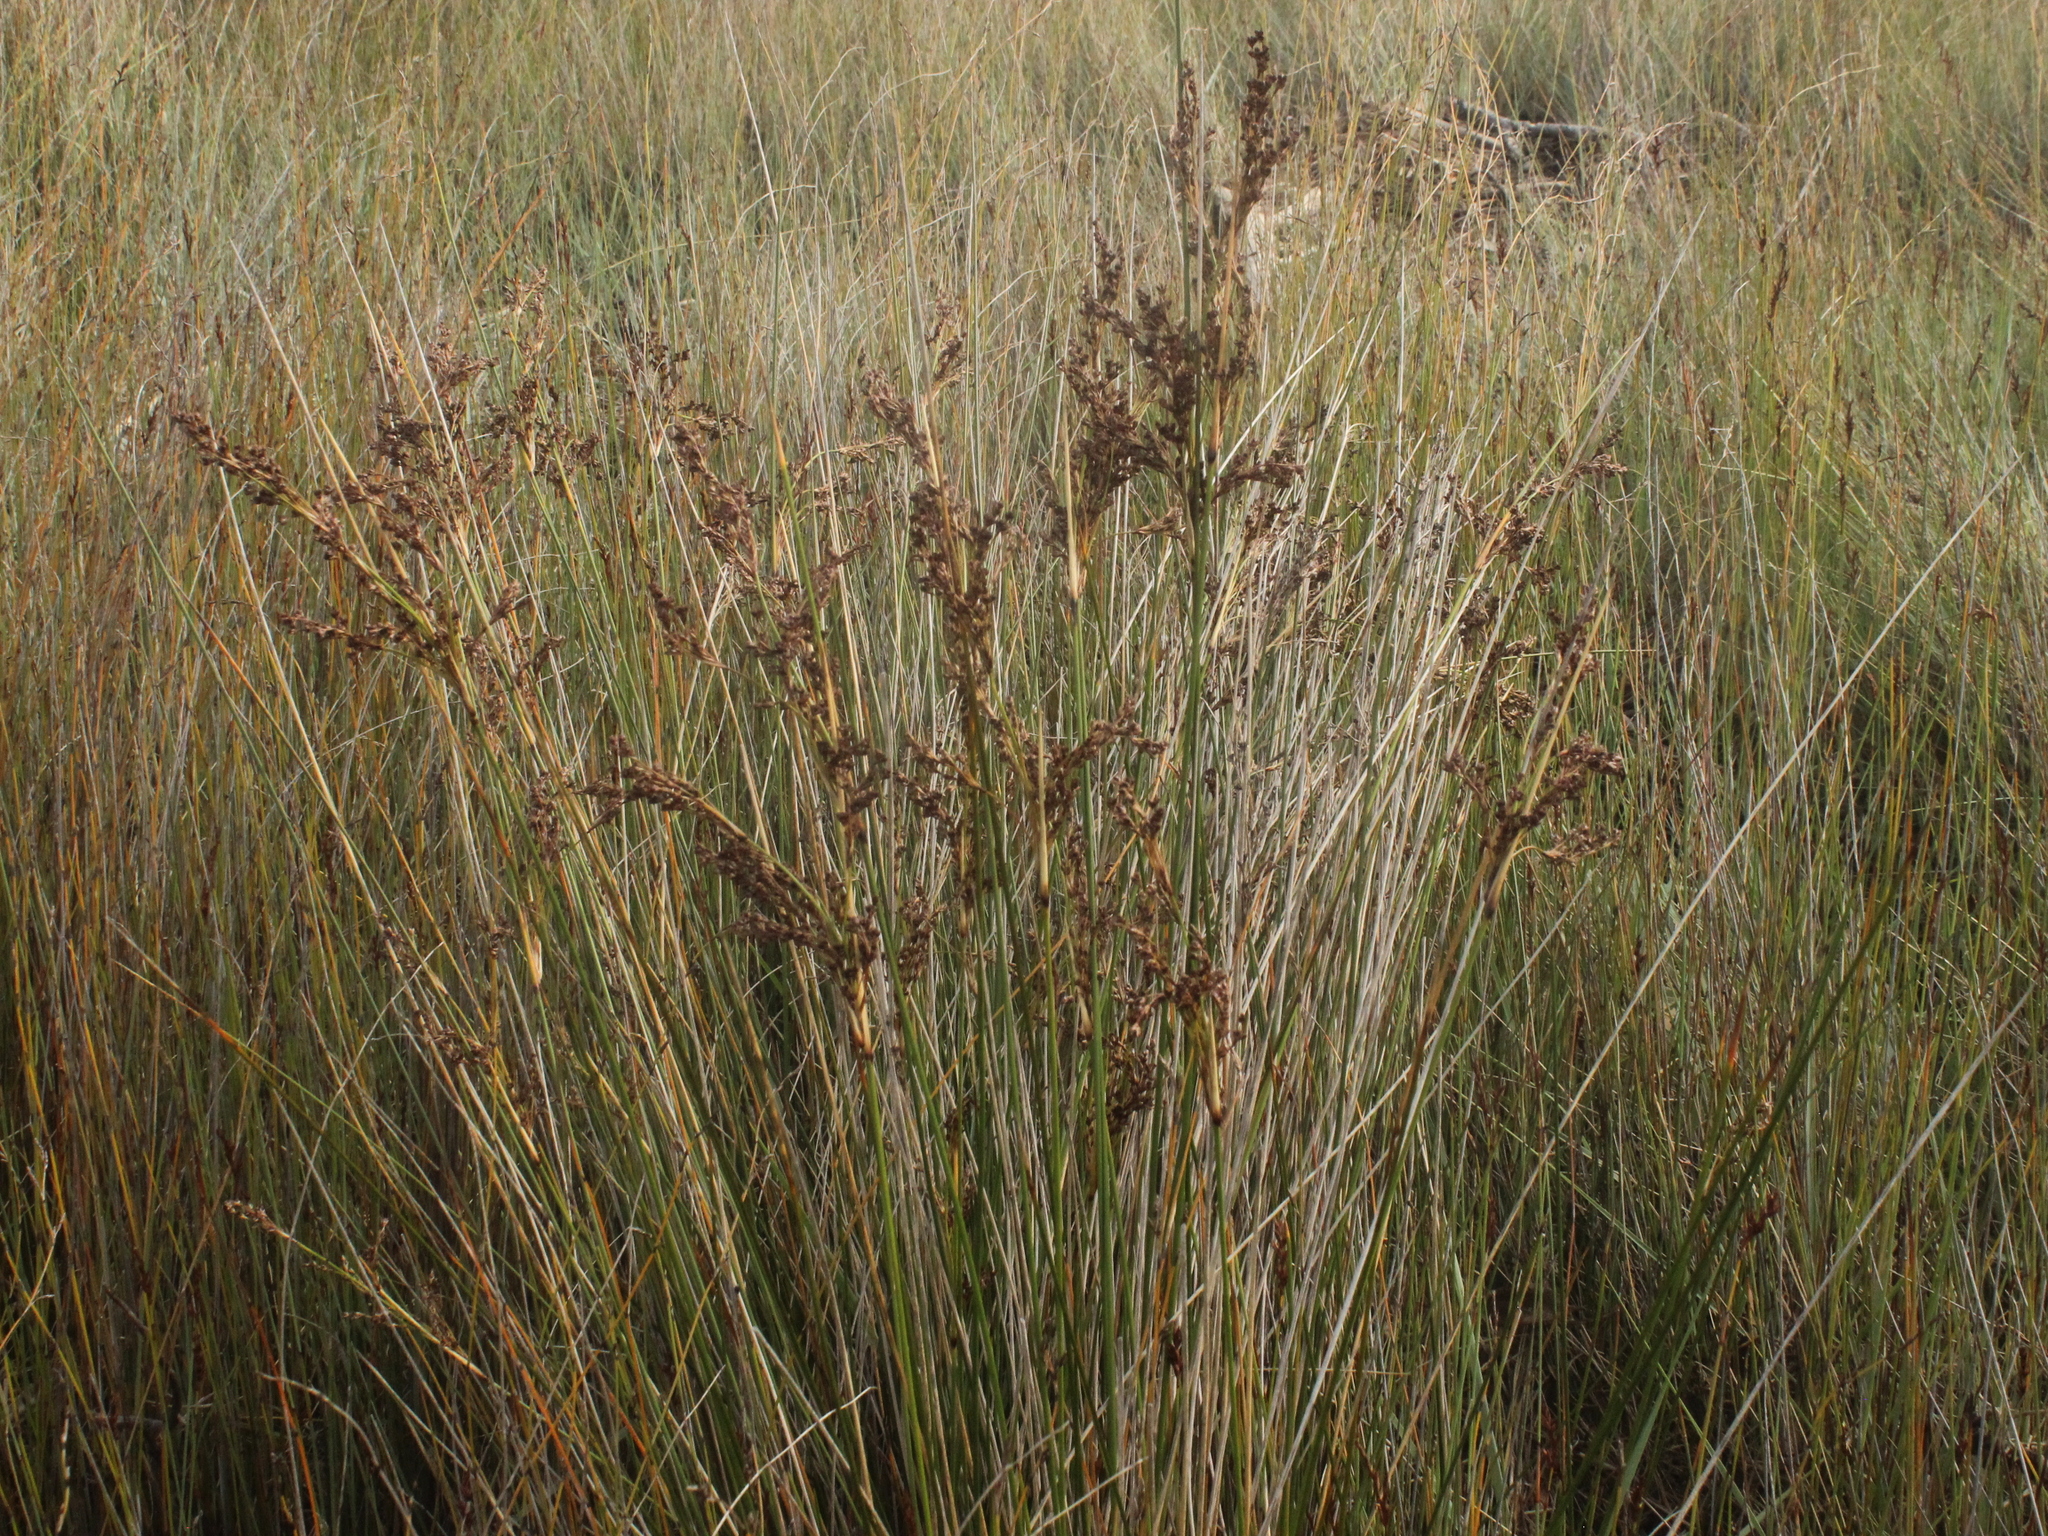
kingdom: Plantae
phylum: Tracheophyta
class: Liliopsida
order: Poales
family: Juncaceae
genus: Juncus
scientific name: Juncus kraussii
